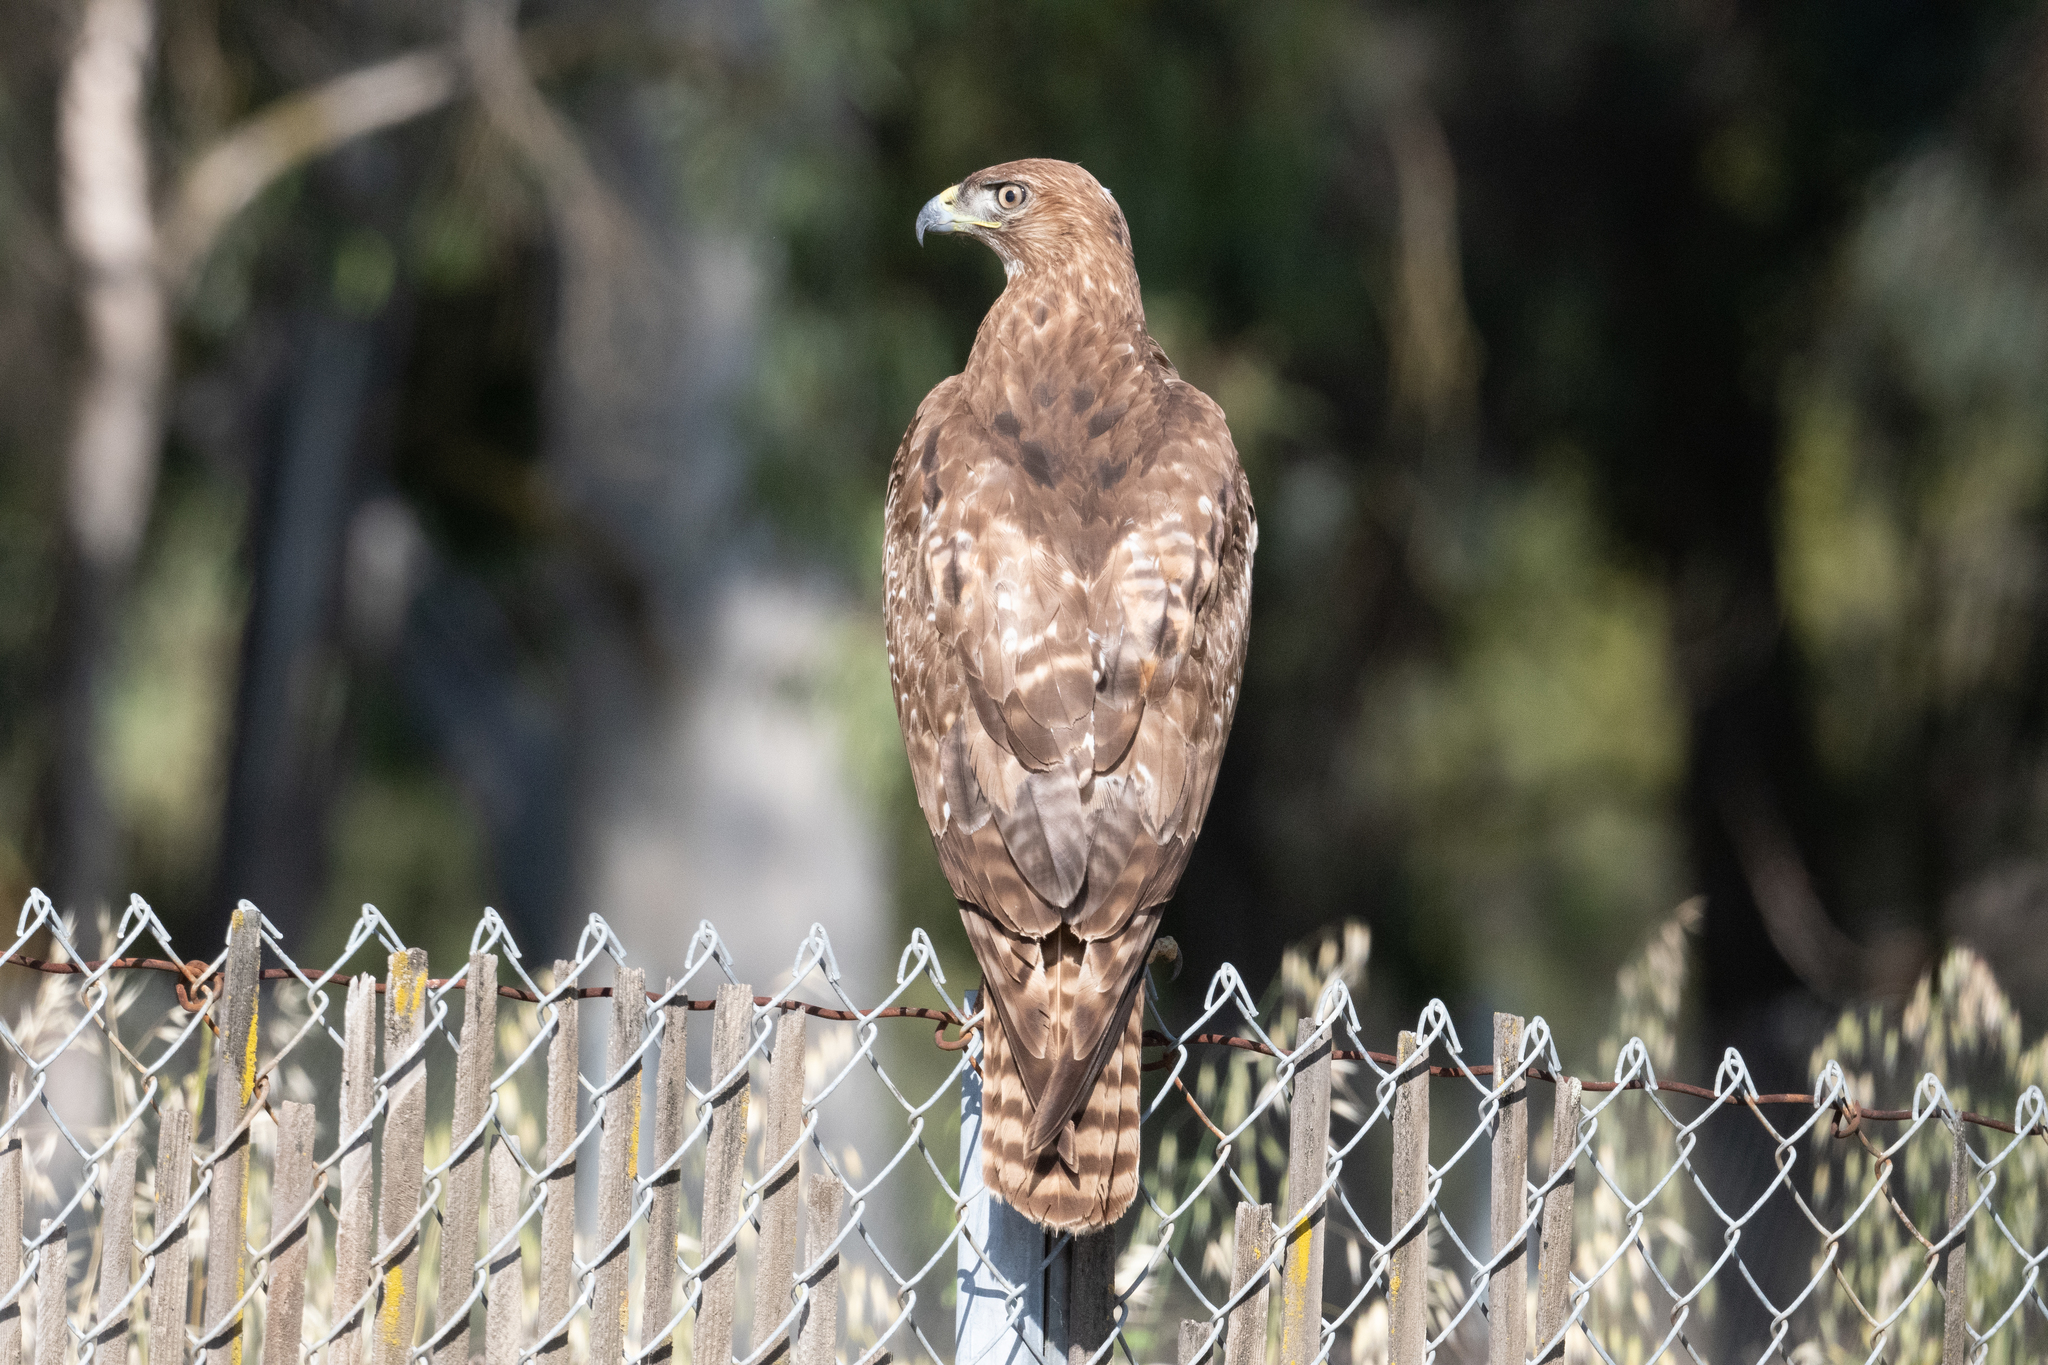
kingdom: Animalia
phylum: Chordata
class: Aves
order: Accipitriformes
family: Accipitridae
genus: Buteo
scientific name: Buteo jamaicensis
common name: Red-tailed hawk
